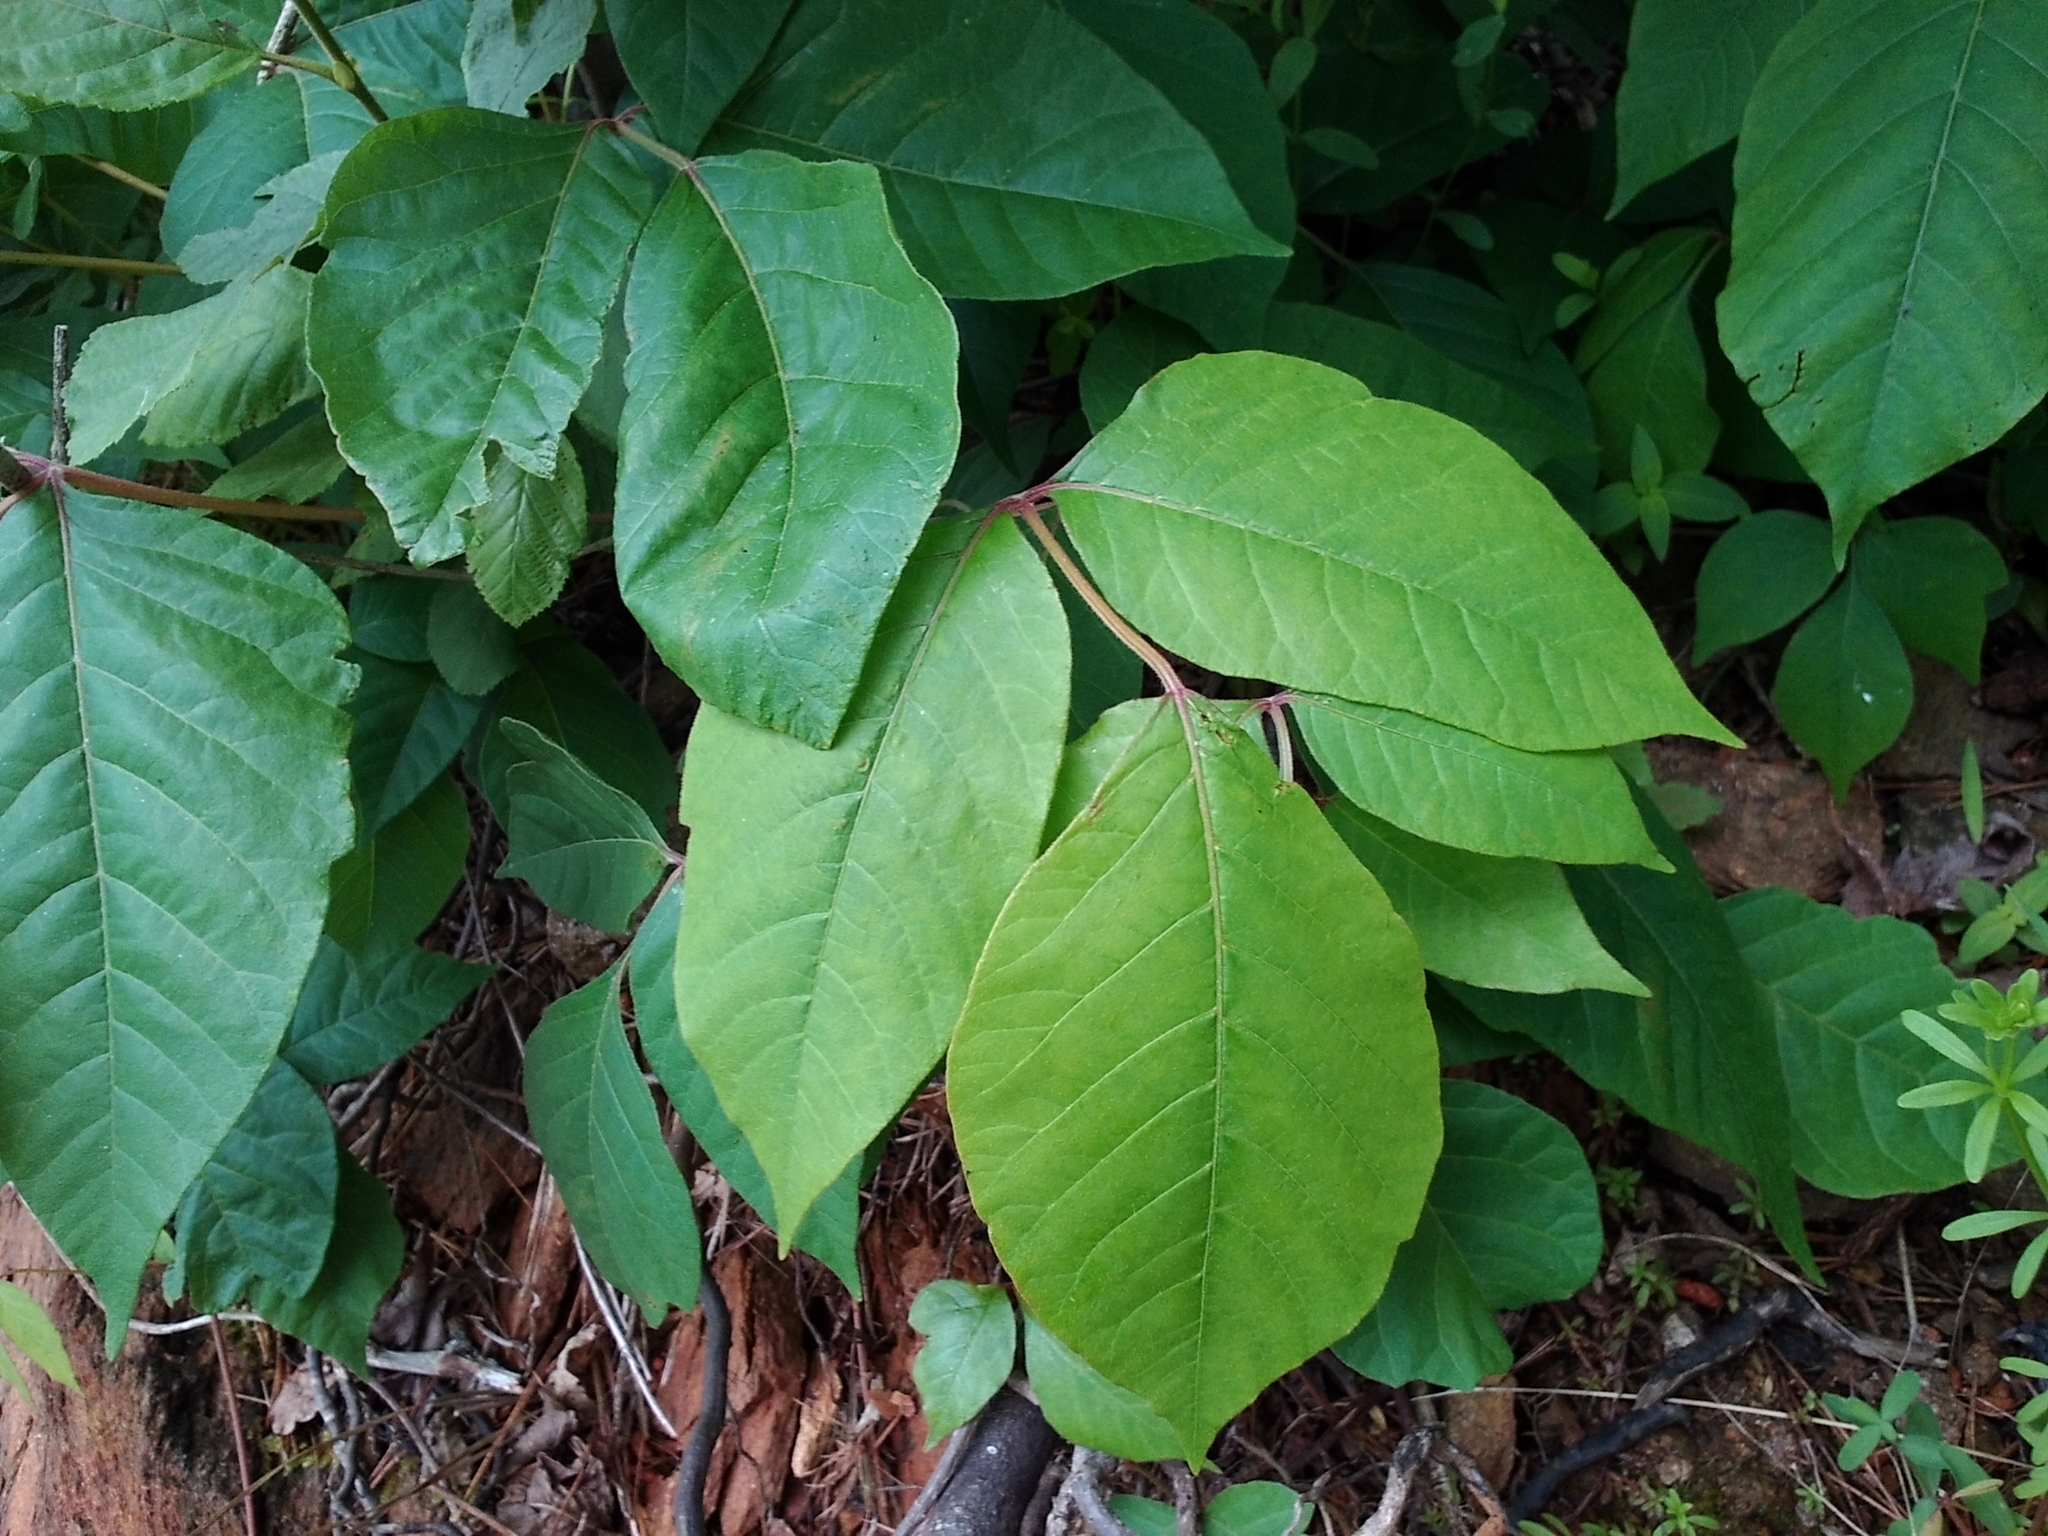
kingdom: Plantae
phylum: Tracheophyta
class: Magnoliopsida
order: Sapindales
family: Anacardiaceae
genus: Toxicodendron
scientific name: Toxicodendron radicans
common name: Poison ivy
